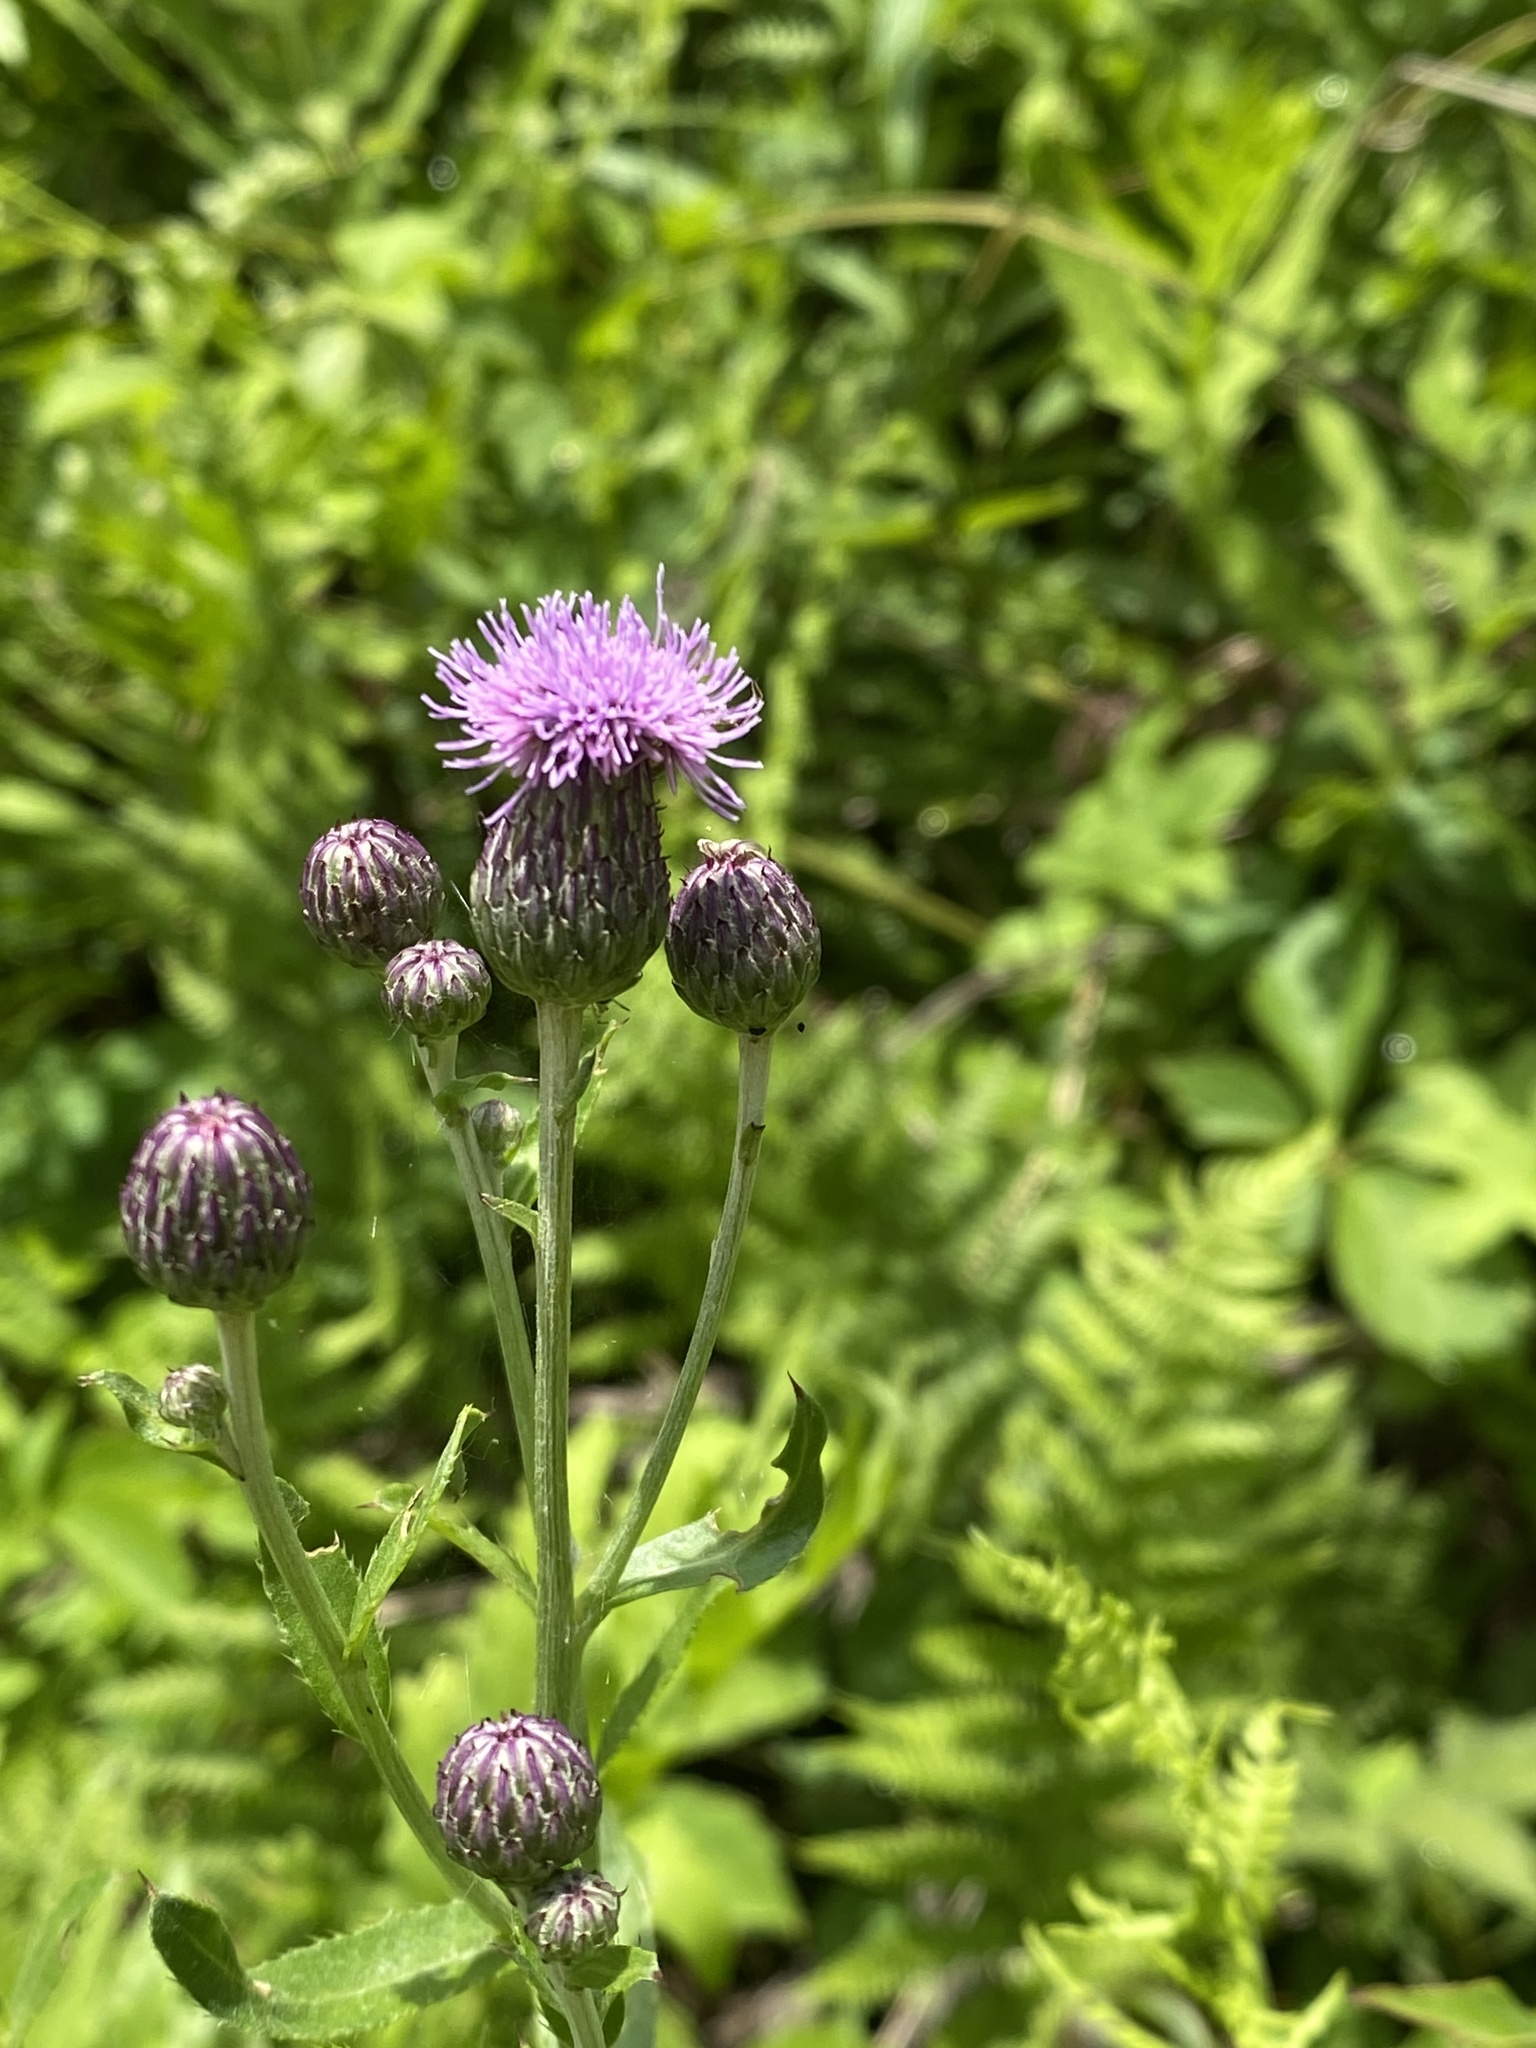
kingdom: Plantae
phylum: Tracheophyta
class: Magnoliopsida
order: Asterales
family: Asteraceae
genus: Cirsium
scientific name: Cirsium arvense
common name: Creeping thistle
